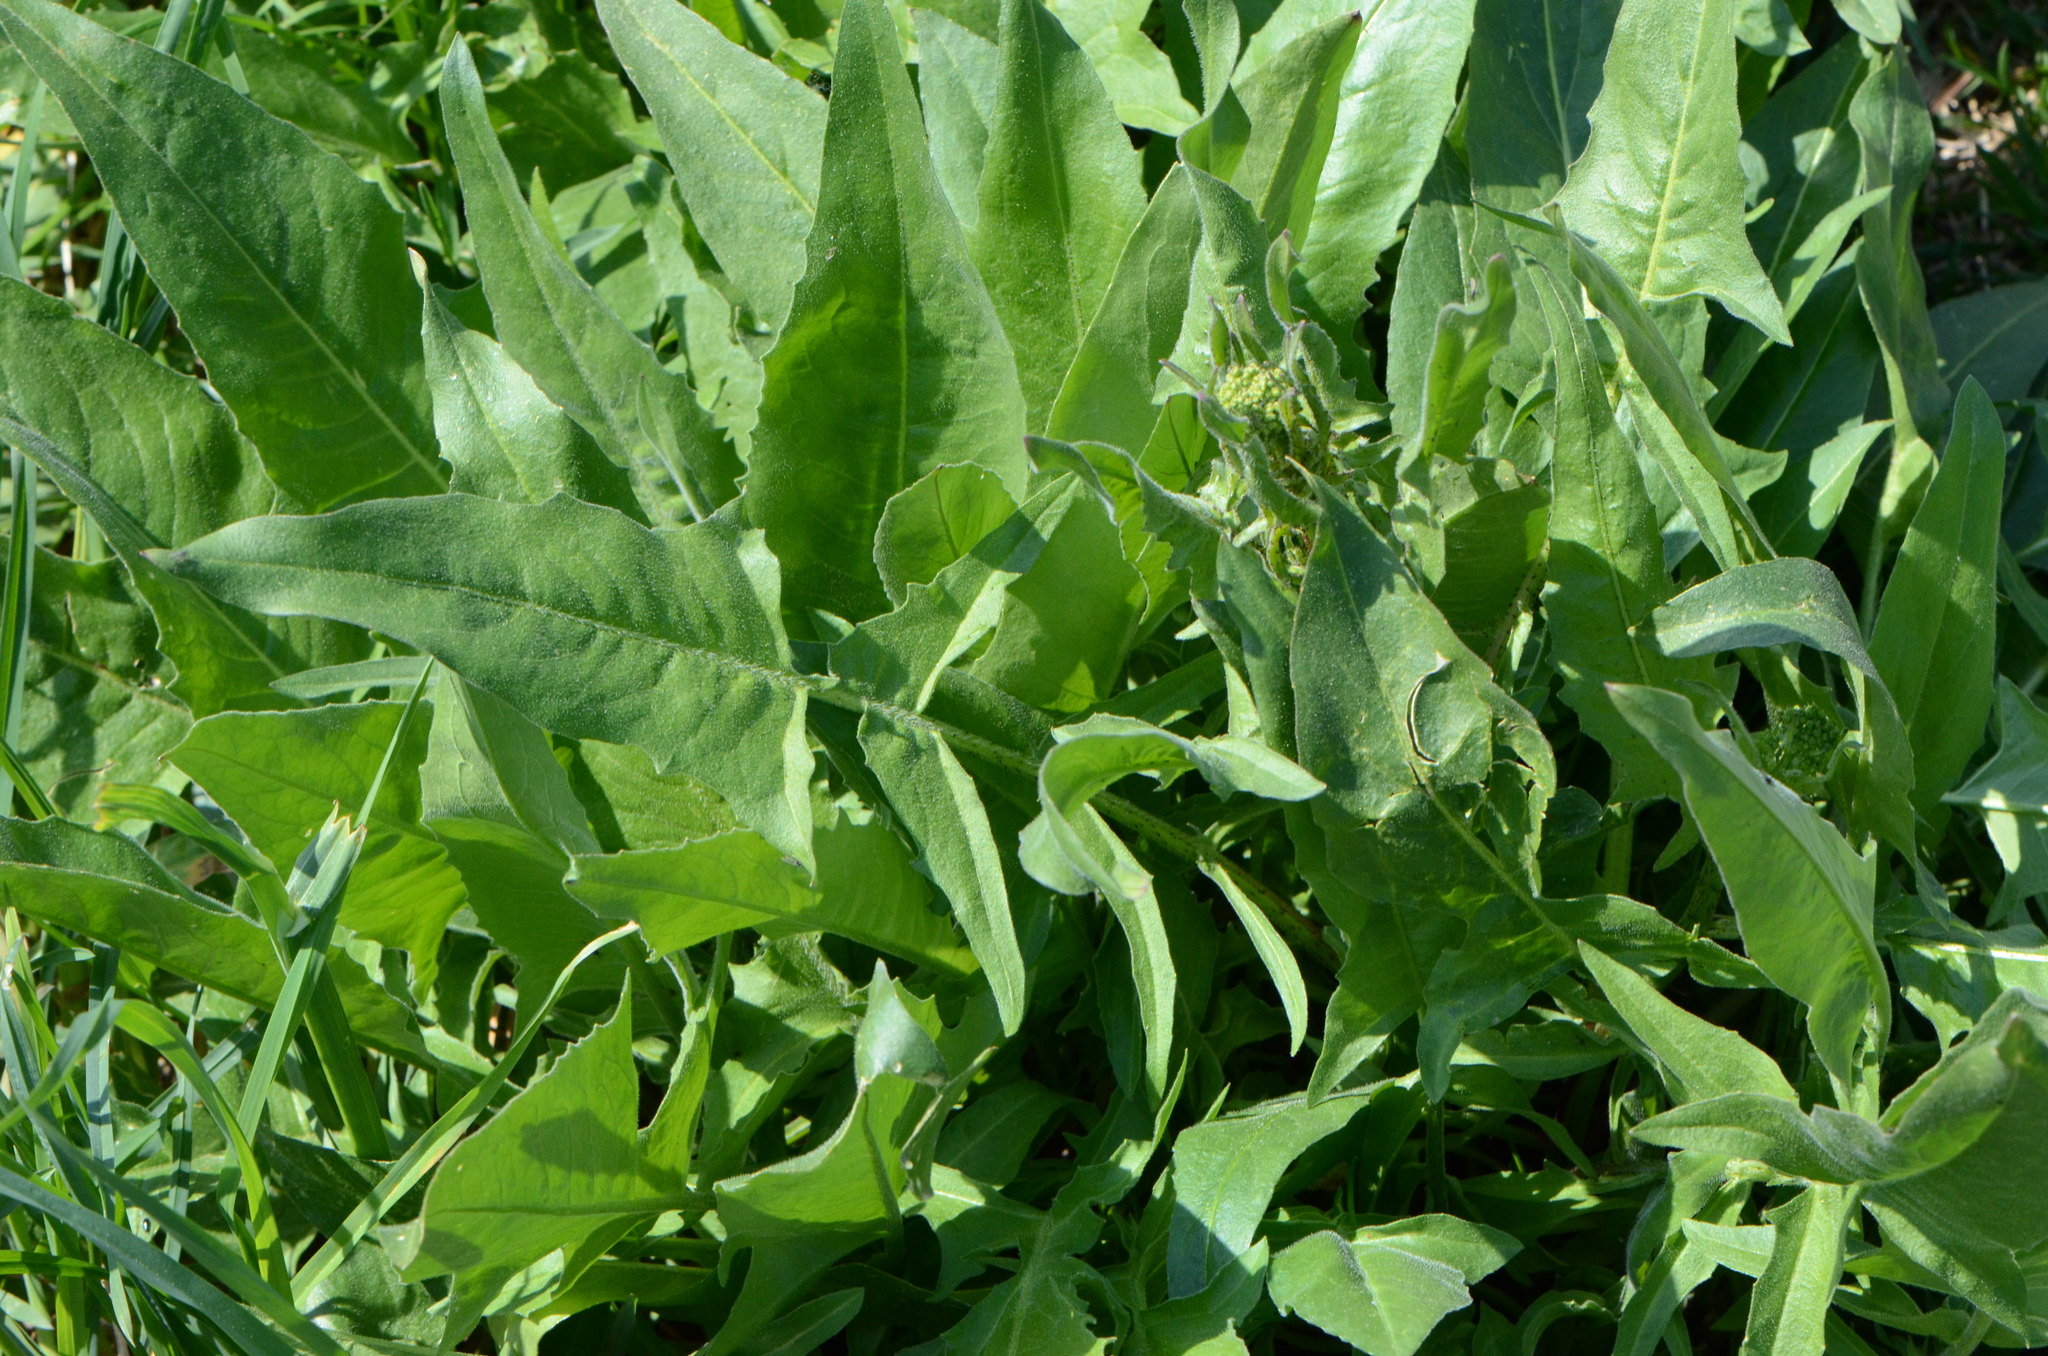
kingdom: Plantae
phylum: Tracheophyta
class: Magnoliopsida
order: Brassicales
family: Brassicaceae
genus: Bunias
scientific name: Bunias orientalis
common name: Warty-cabbage
